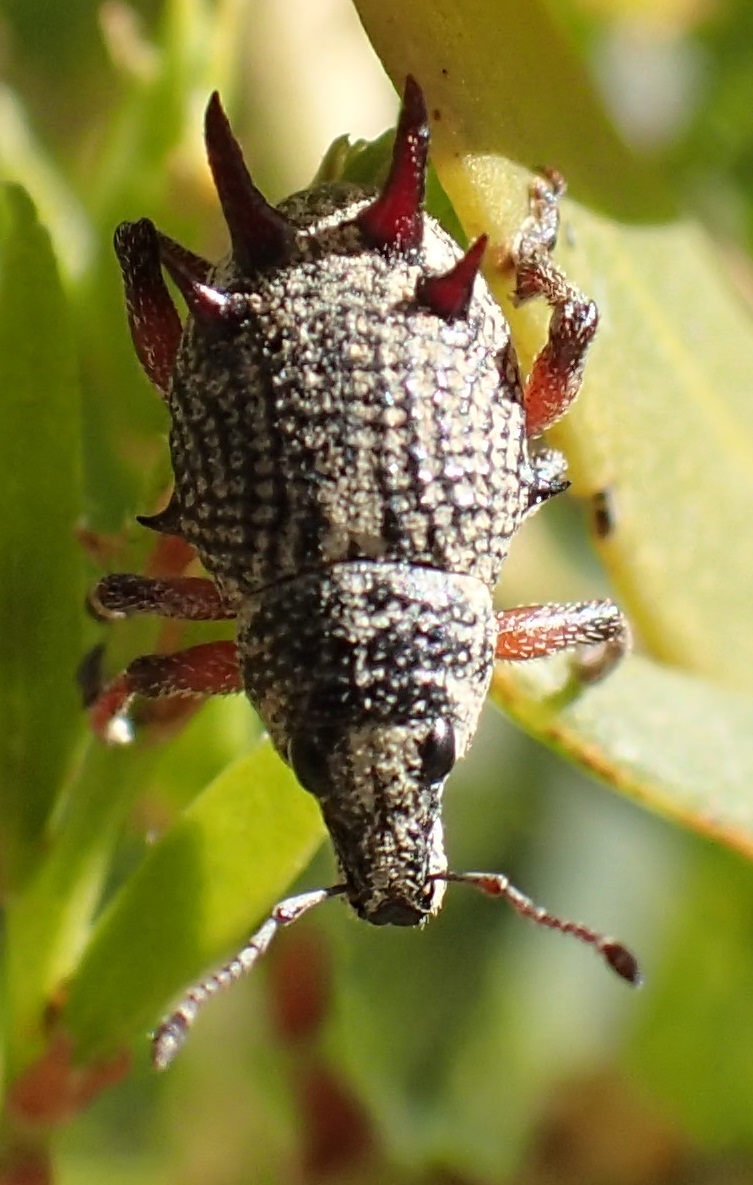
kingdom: Animalia
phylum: Arthropoda
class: Insecta
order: Coleoptera
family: Curculionidae
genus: Catasarcus
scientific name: Catasarcus spinipennis
